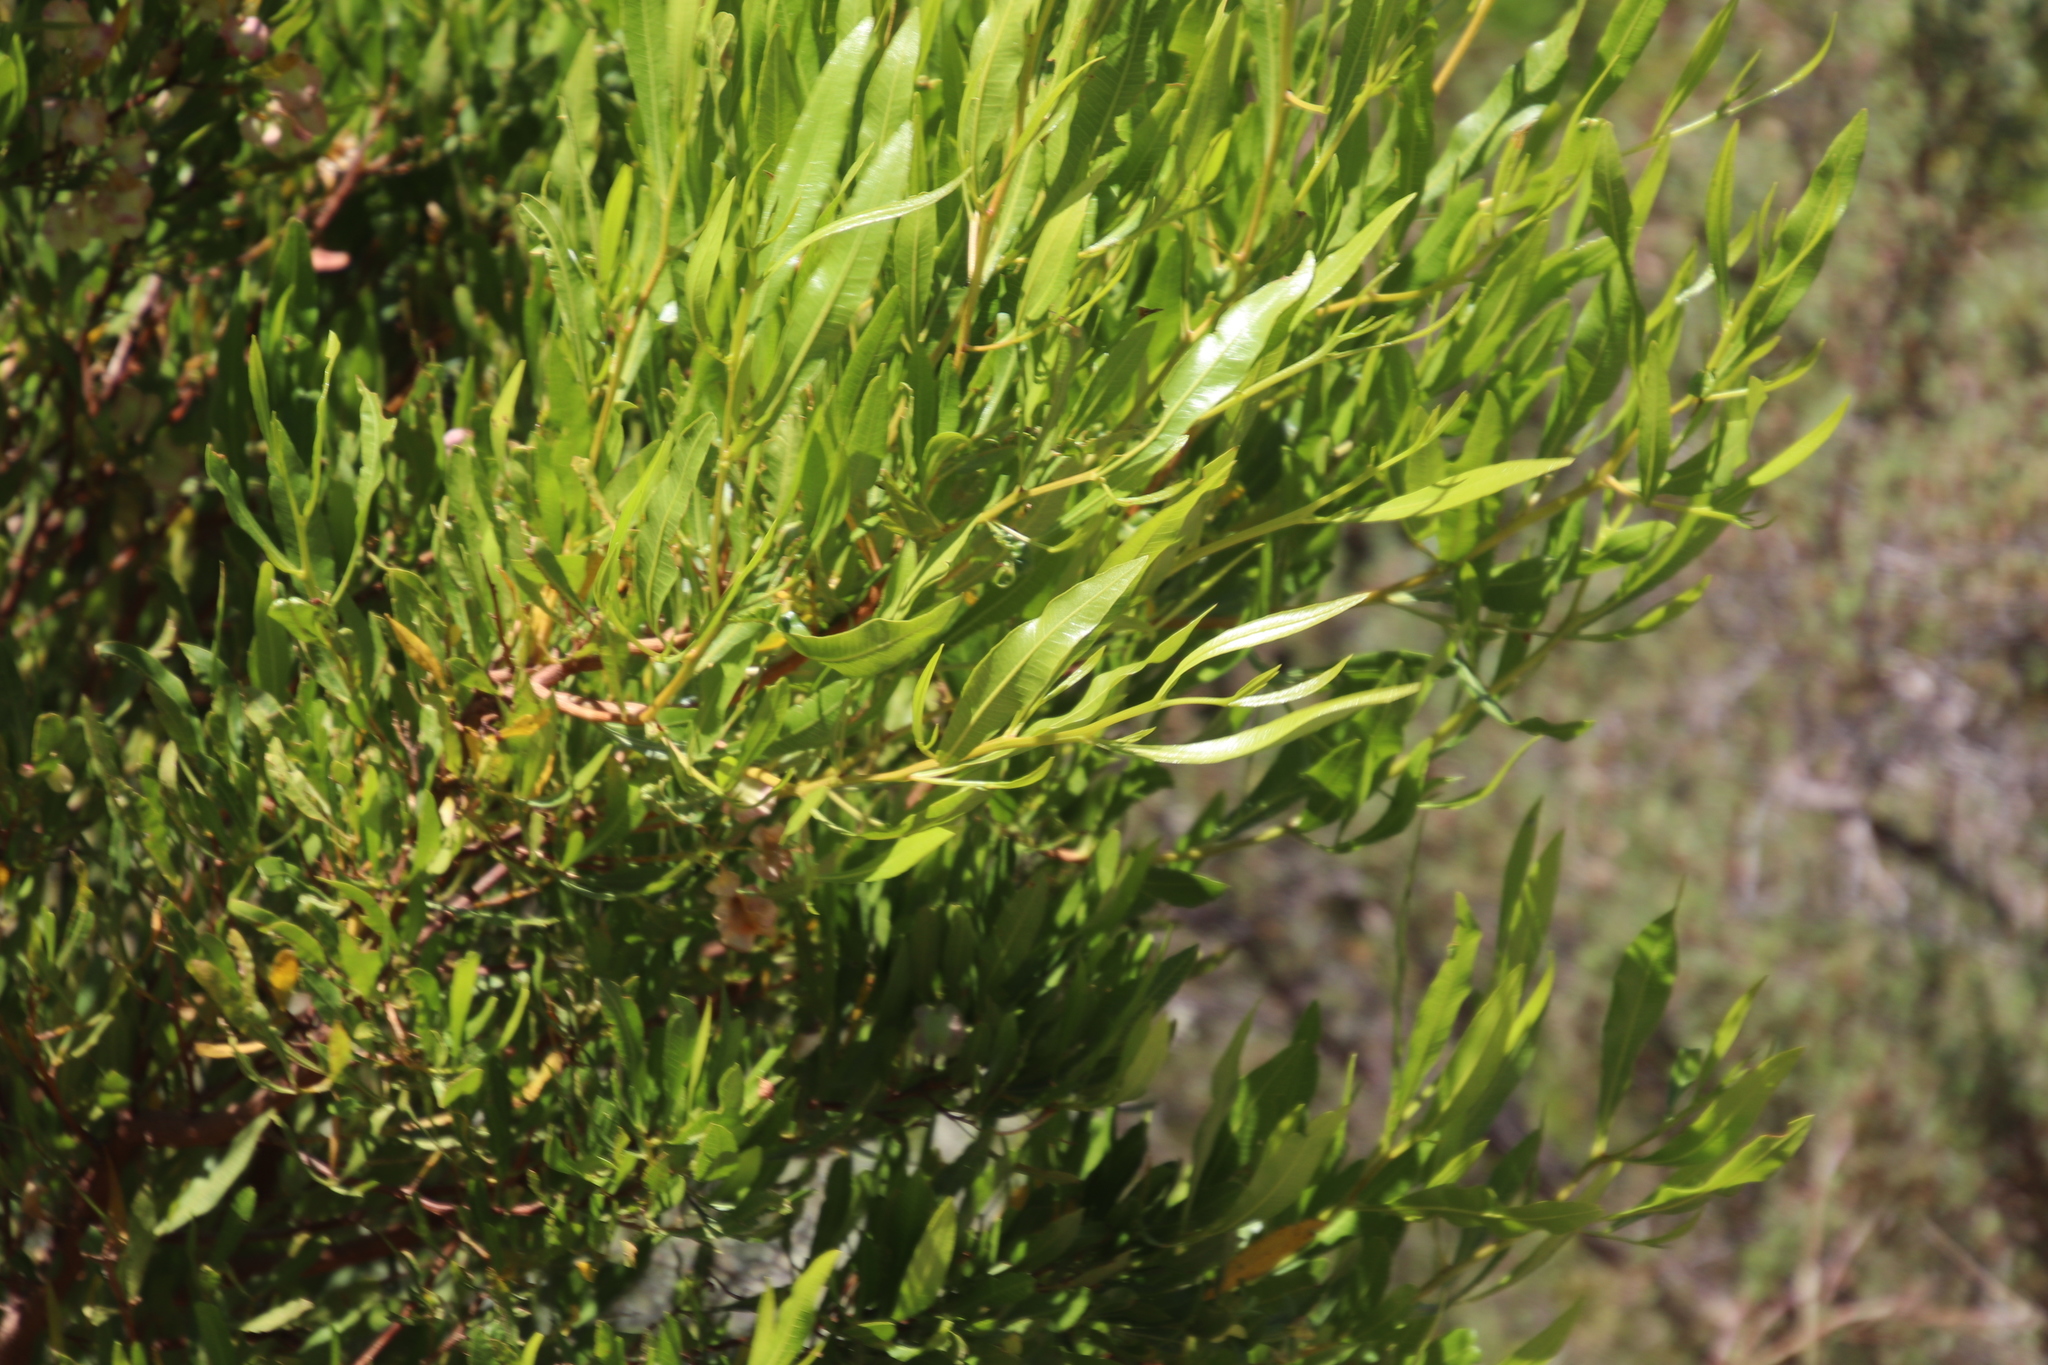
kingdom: Plantae
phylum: Tracheophyta
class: Magnoliopsida
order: Sapindales
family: Sapindaceae
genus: Dodonaea
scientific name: Dodonaea viscosa
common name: Hopbush
